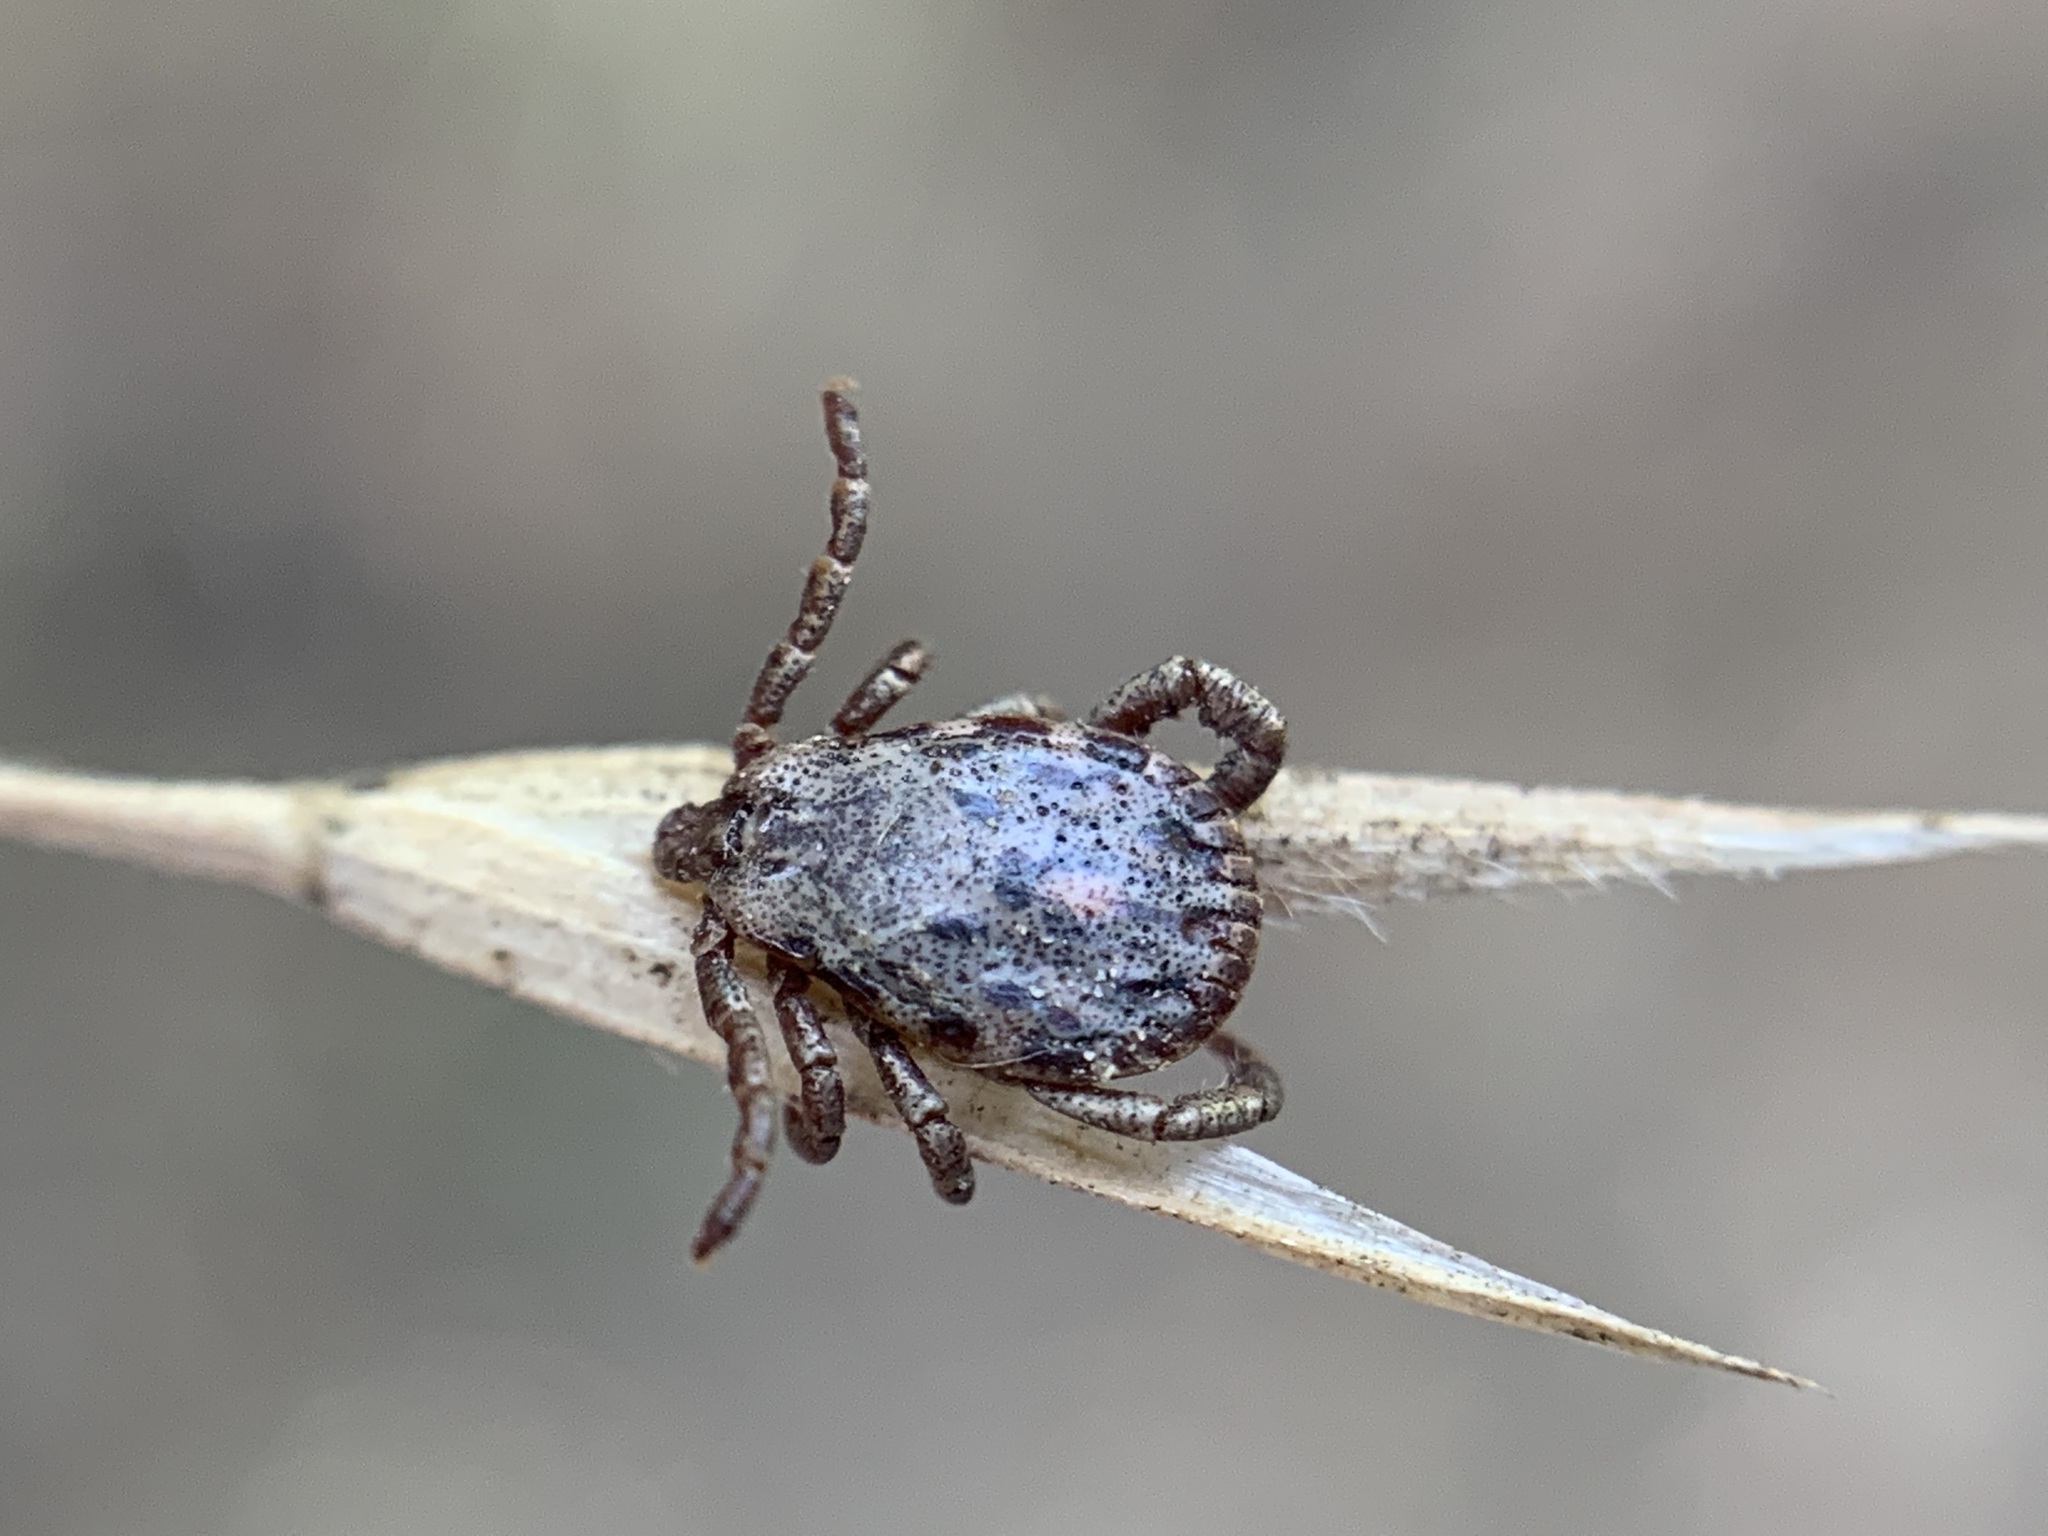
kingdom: Animalia
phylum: Arthropoda
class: Arachnida
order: Ixodida
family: Ixodidae
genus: Dermacentor
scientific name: Dermacentor occidentalis
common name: Net tick
